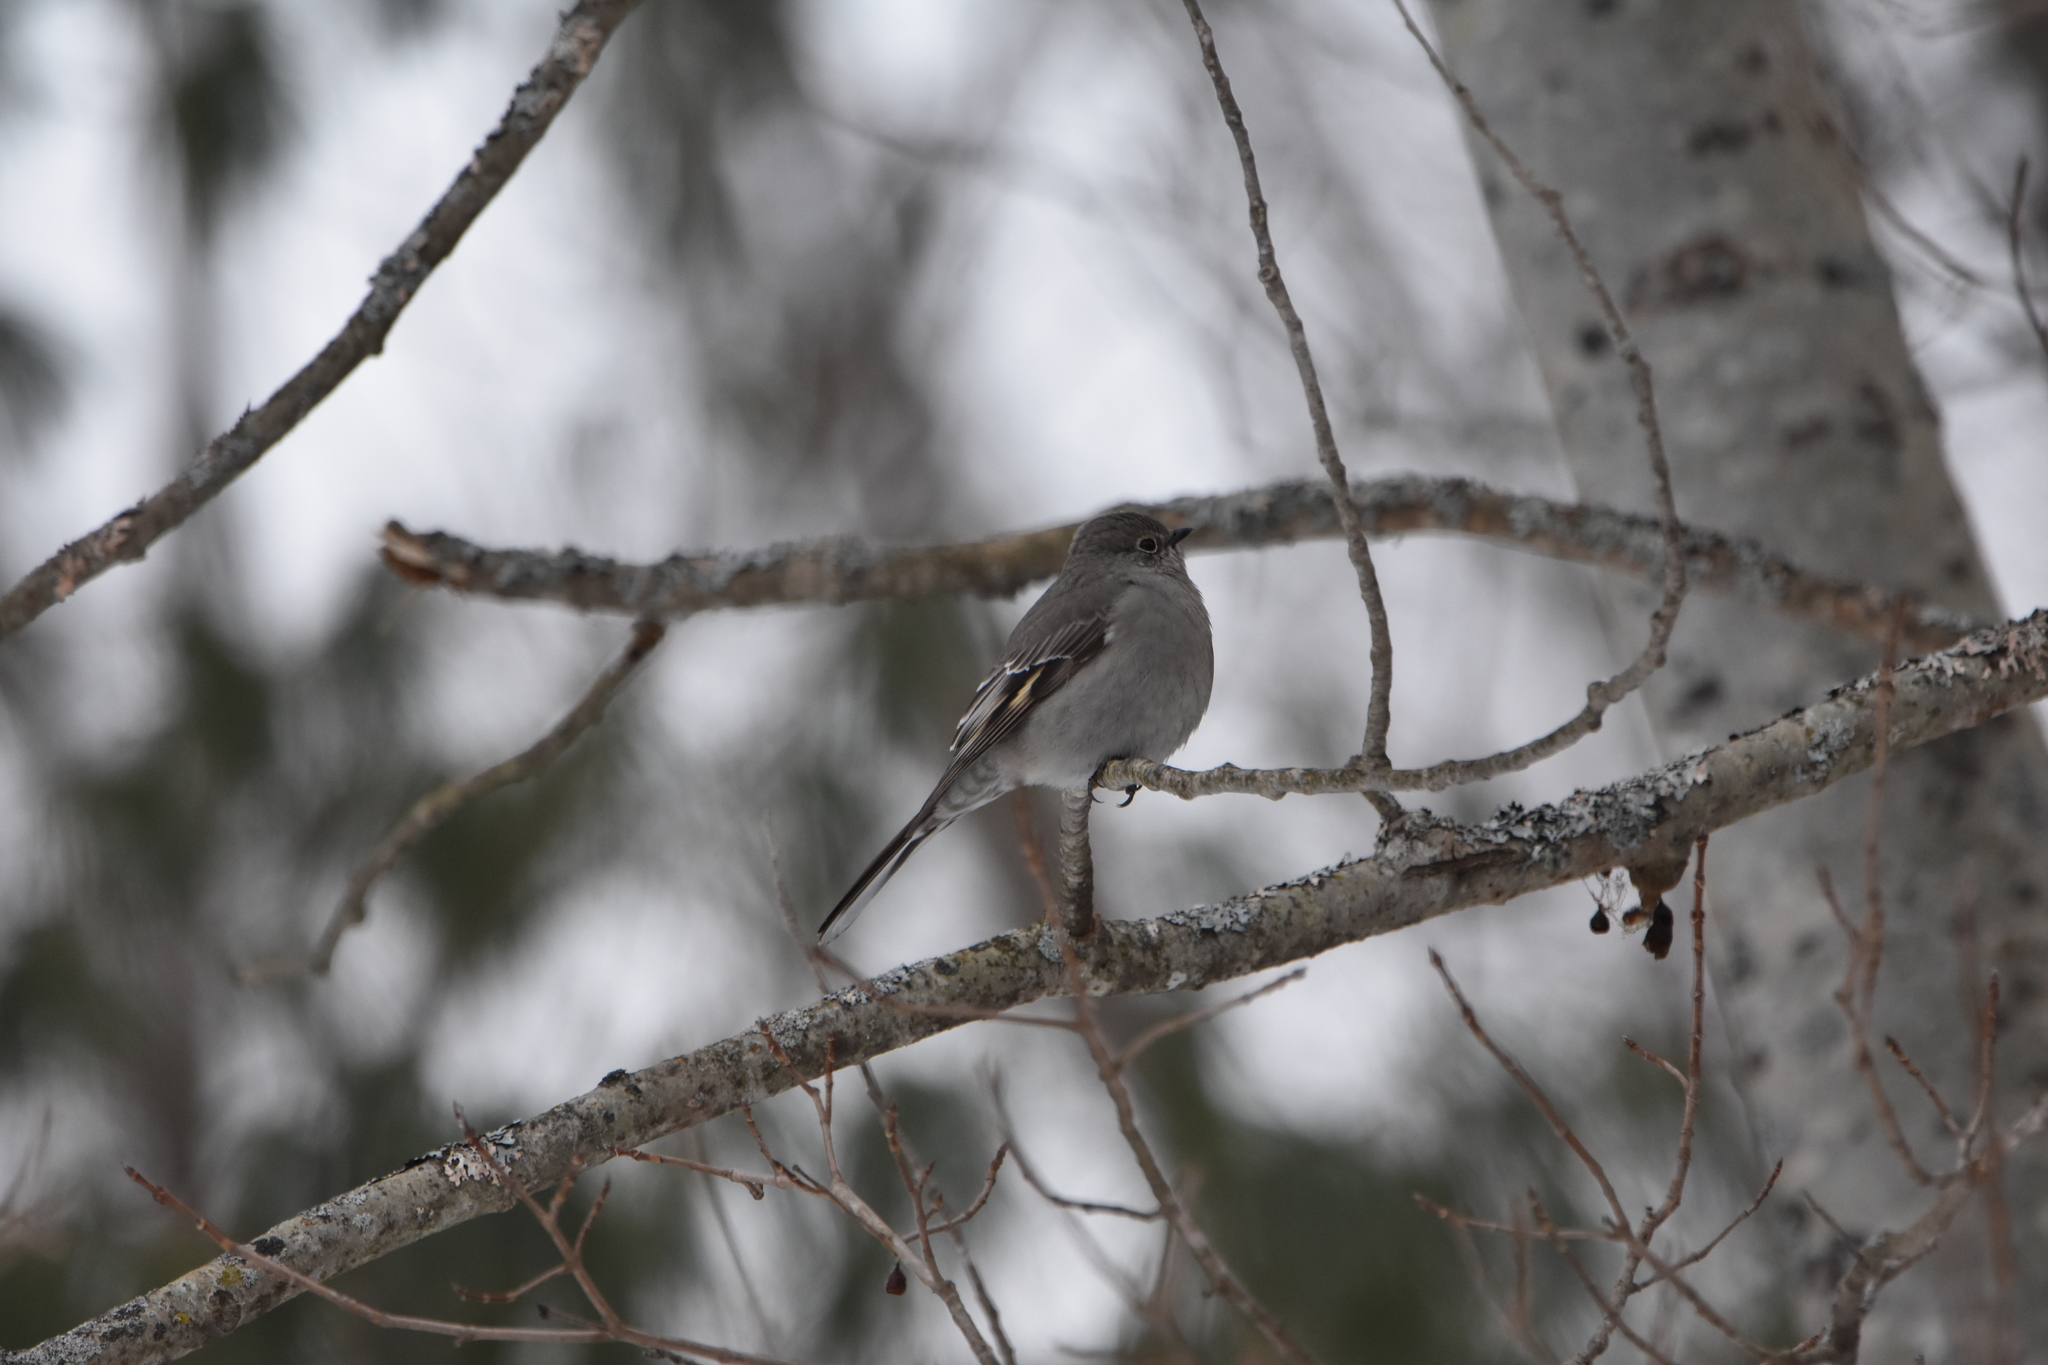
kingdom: Animalia
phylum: Chordata
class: Aves
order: Passeriformes
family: Turdidae
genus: Myadestes
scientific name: Myadestes townsendi
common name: Townsend's solitaire
